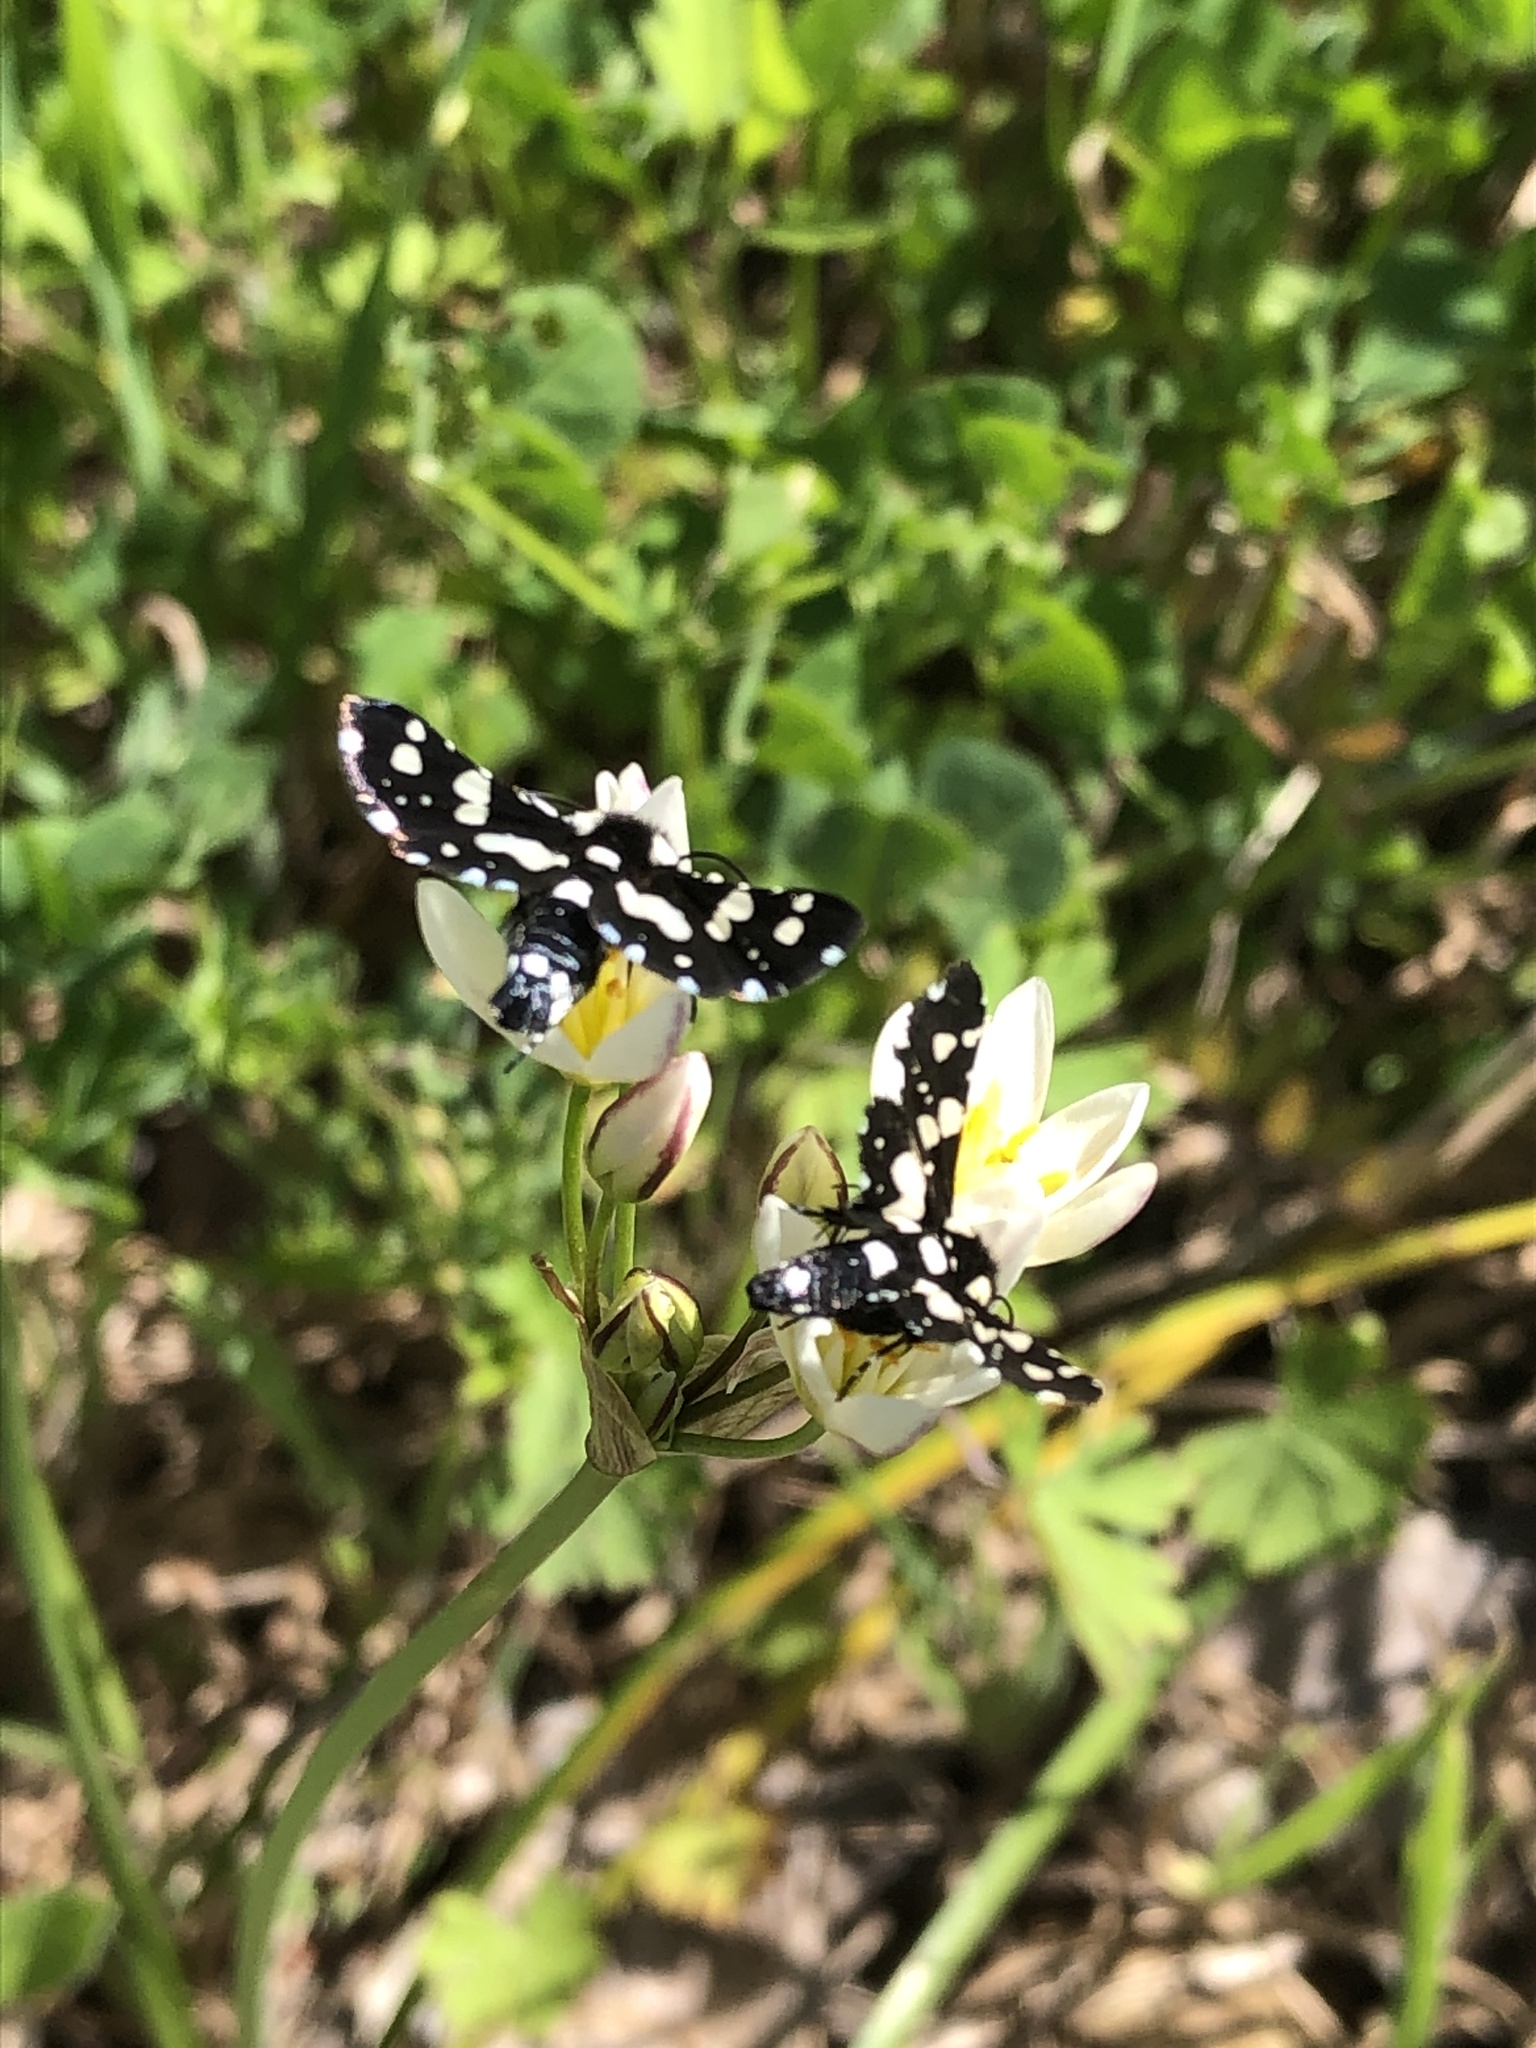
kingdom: Animalia
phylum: Arthropoda
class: Insecta
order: Lepidoptera
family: Thyrididae
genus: Pseudothyris
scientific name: Pseudothyris sepulchralis
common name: Mournful thyris moth
